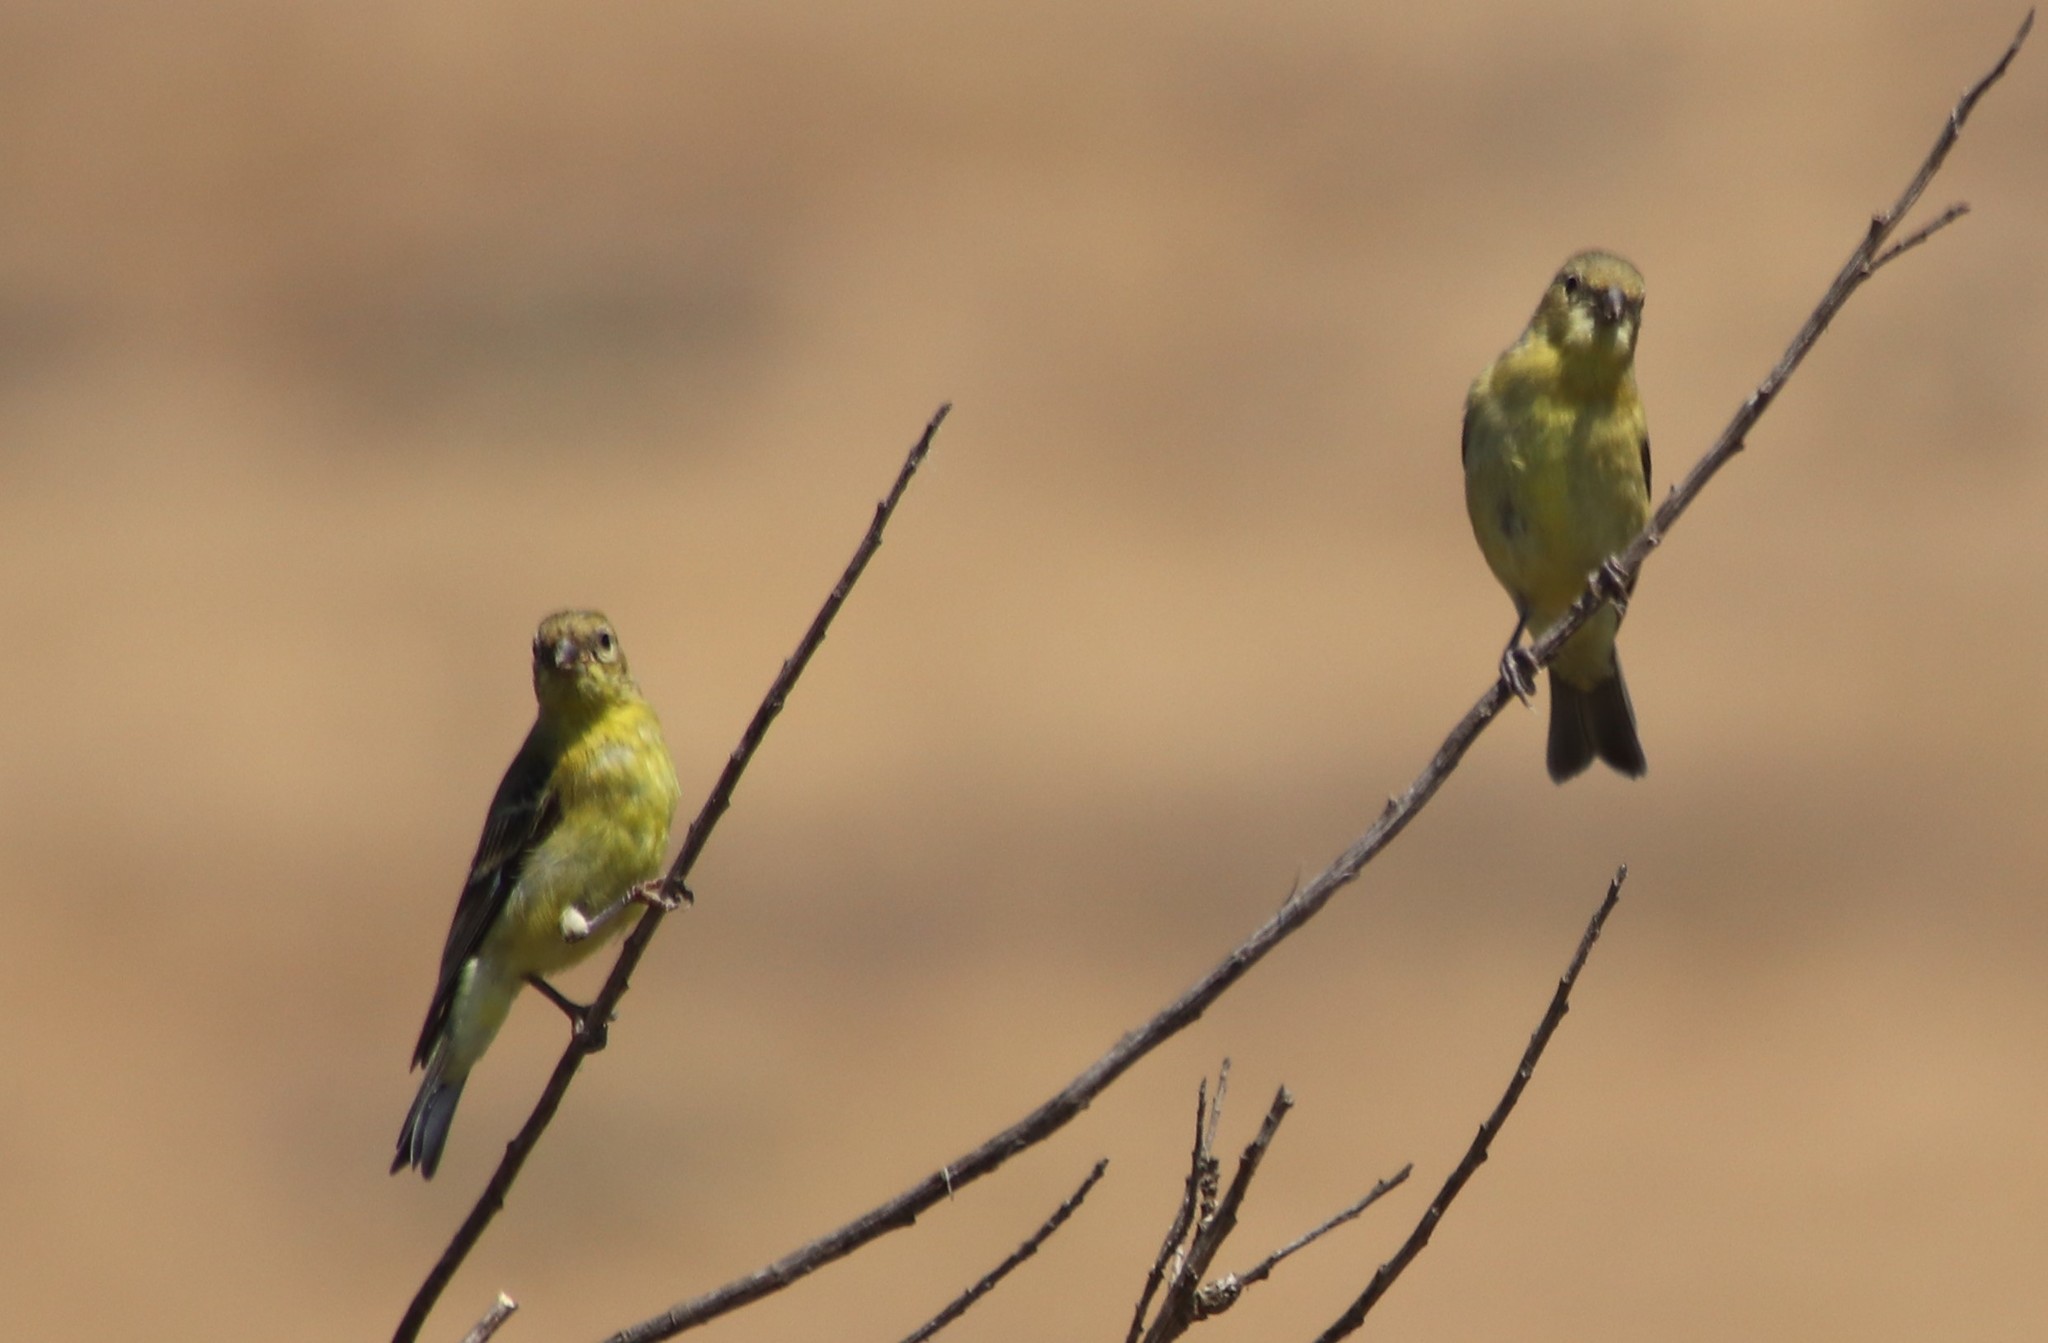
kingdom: Animalia
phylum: Chordata
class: Aves
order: Passeriformes
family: Fringillidae
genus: Spinus
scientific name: Spinus psaltria
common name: Lesser goldfinch
